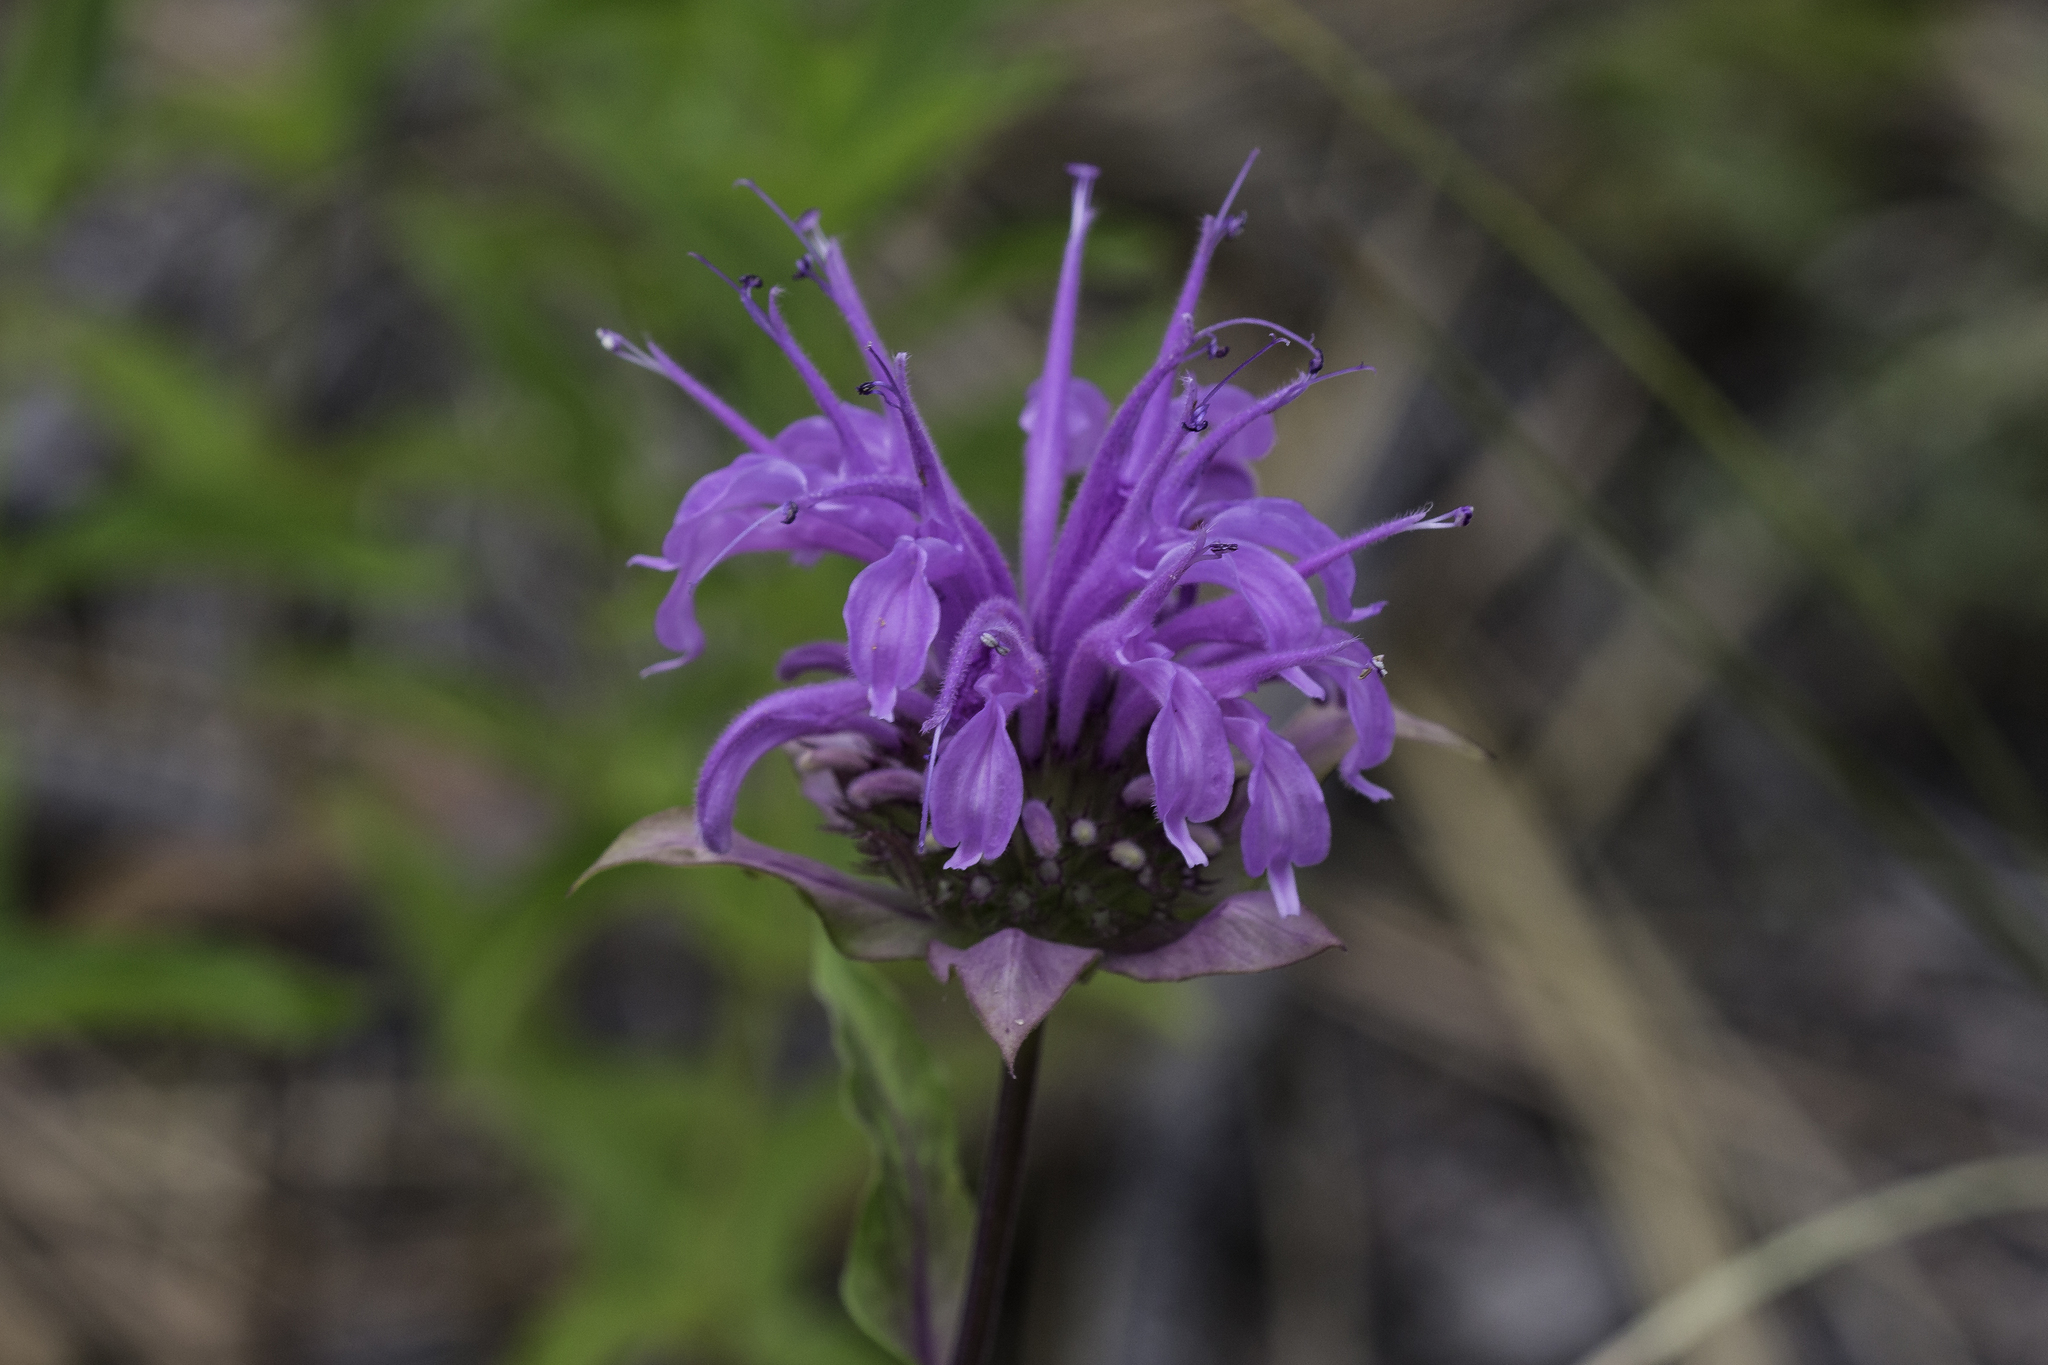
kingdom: Plantae
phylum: Tracheophyta
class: Magnoliopsida
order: Lamiales
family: Lamiaceae
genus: Monarda
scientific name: Monarda fistulosa
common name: Purple beebalm
